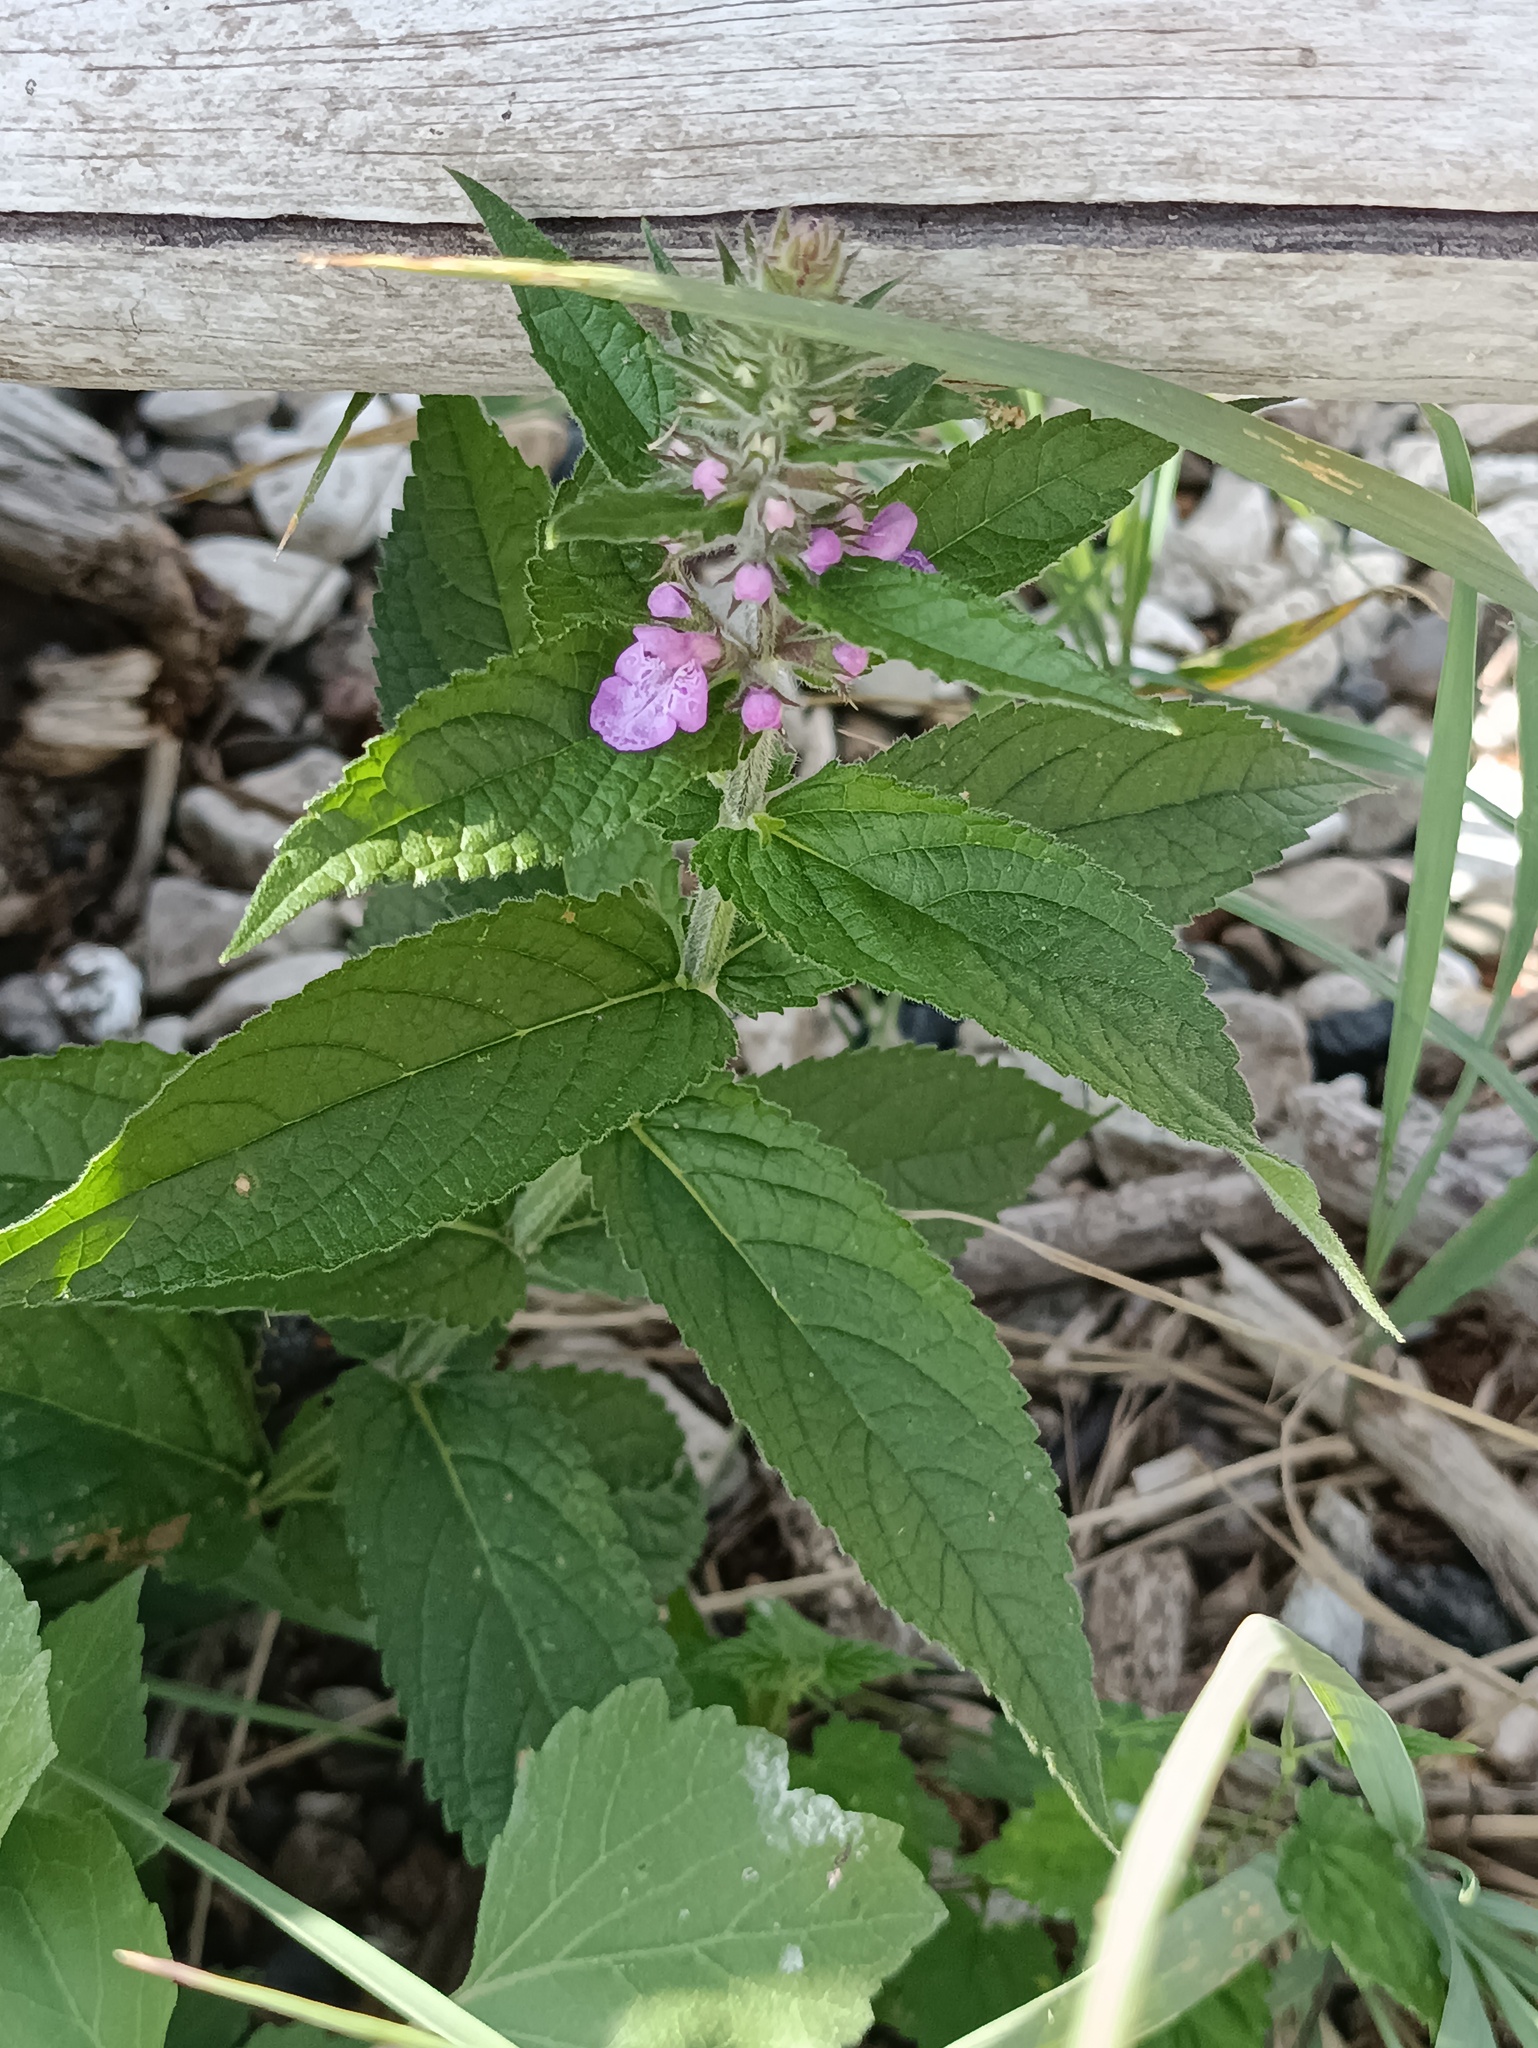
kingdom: Plantae
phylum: Tracheophyta
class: Magnoliopsida
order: Lamiales
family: Lamiaceae
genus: Stachys
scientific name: Stachys palustris
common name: Marsh woundwort
